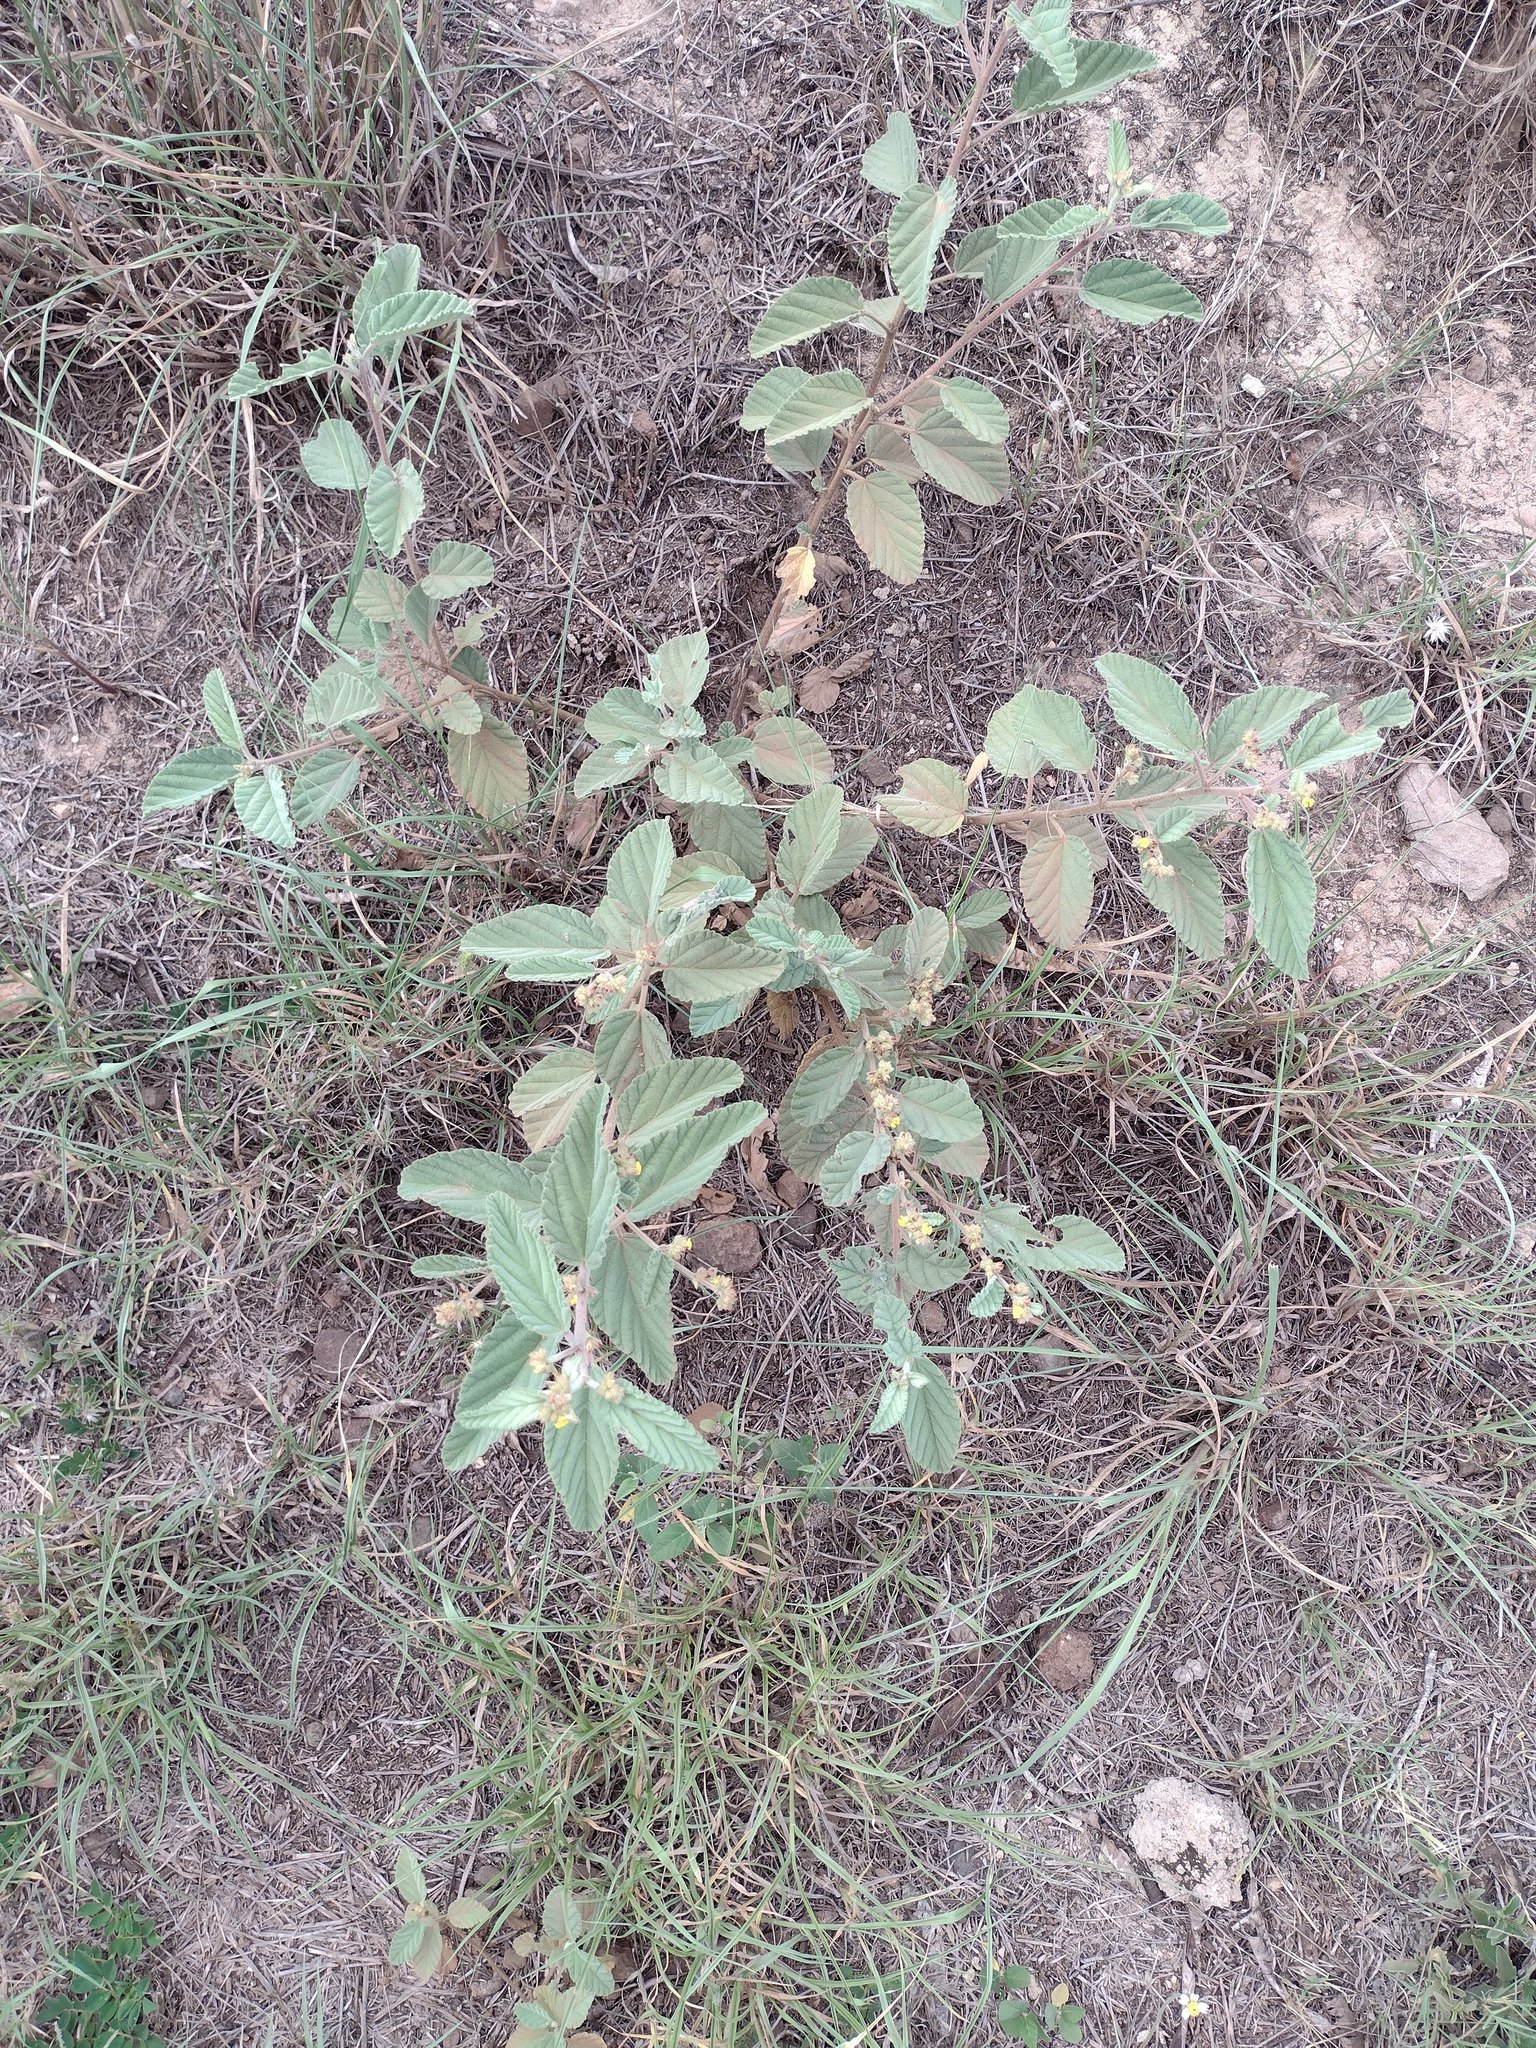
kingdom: Plantae
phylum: Tracheophyta
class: Magnoliopsida
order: Malvales
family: Malvaceae
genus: Waltheria
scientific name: Waltheria indica
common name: Leather-coat
